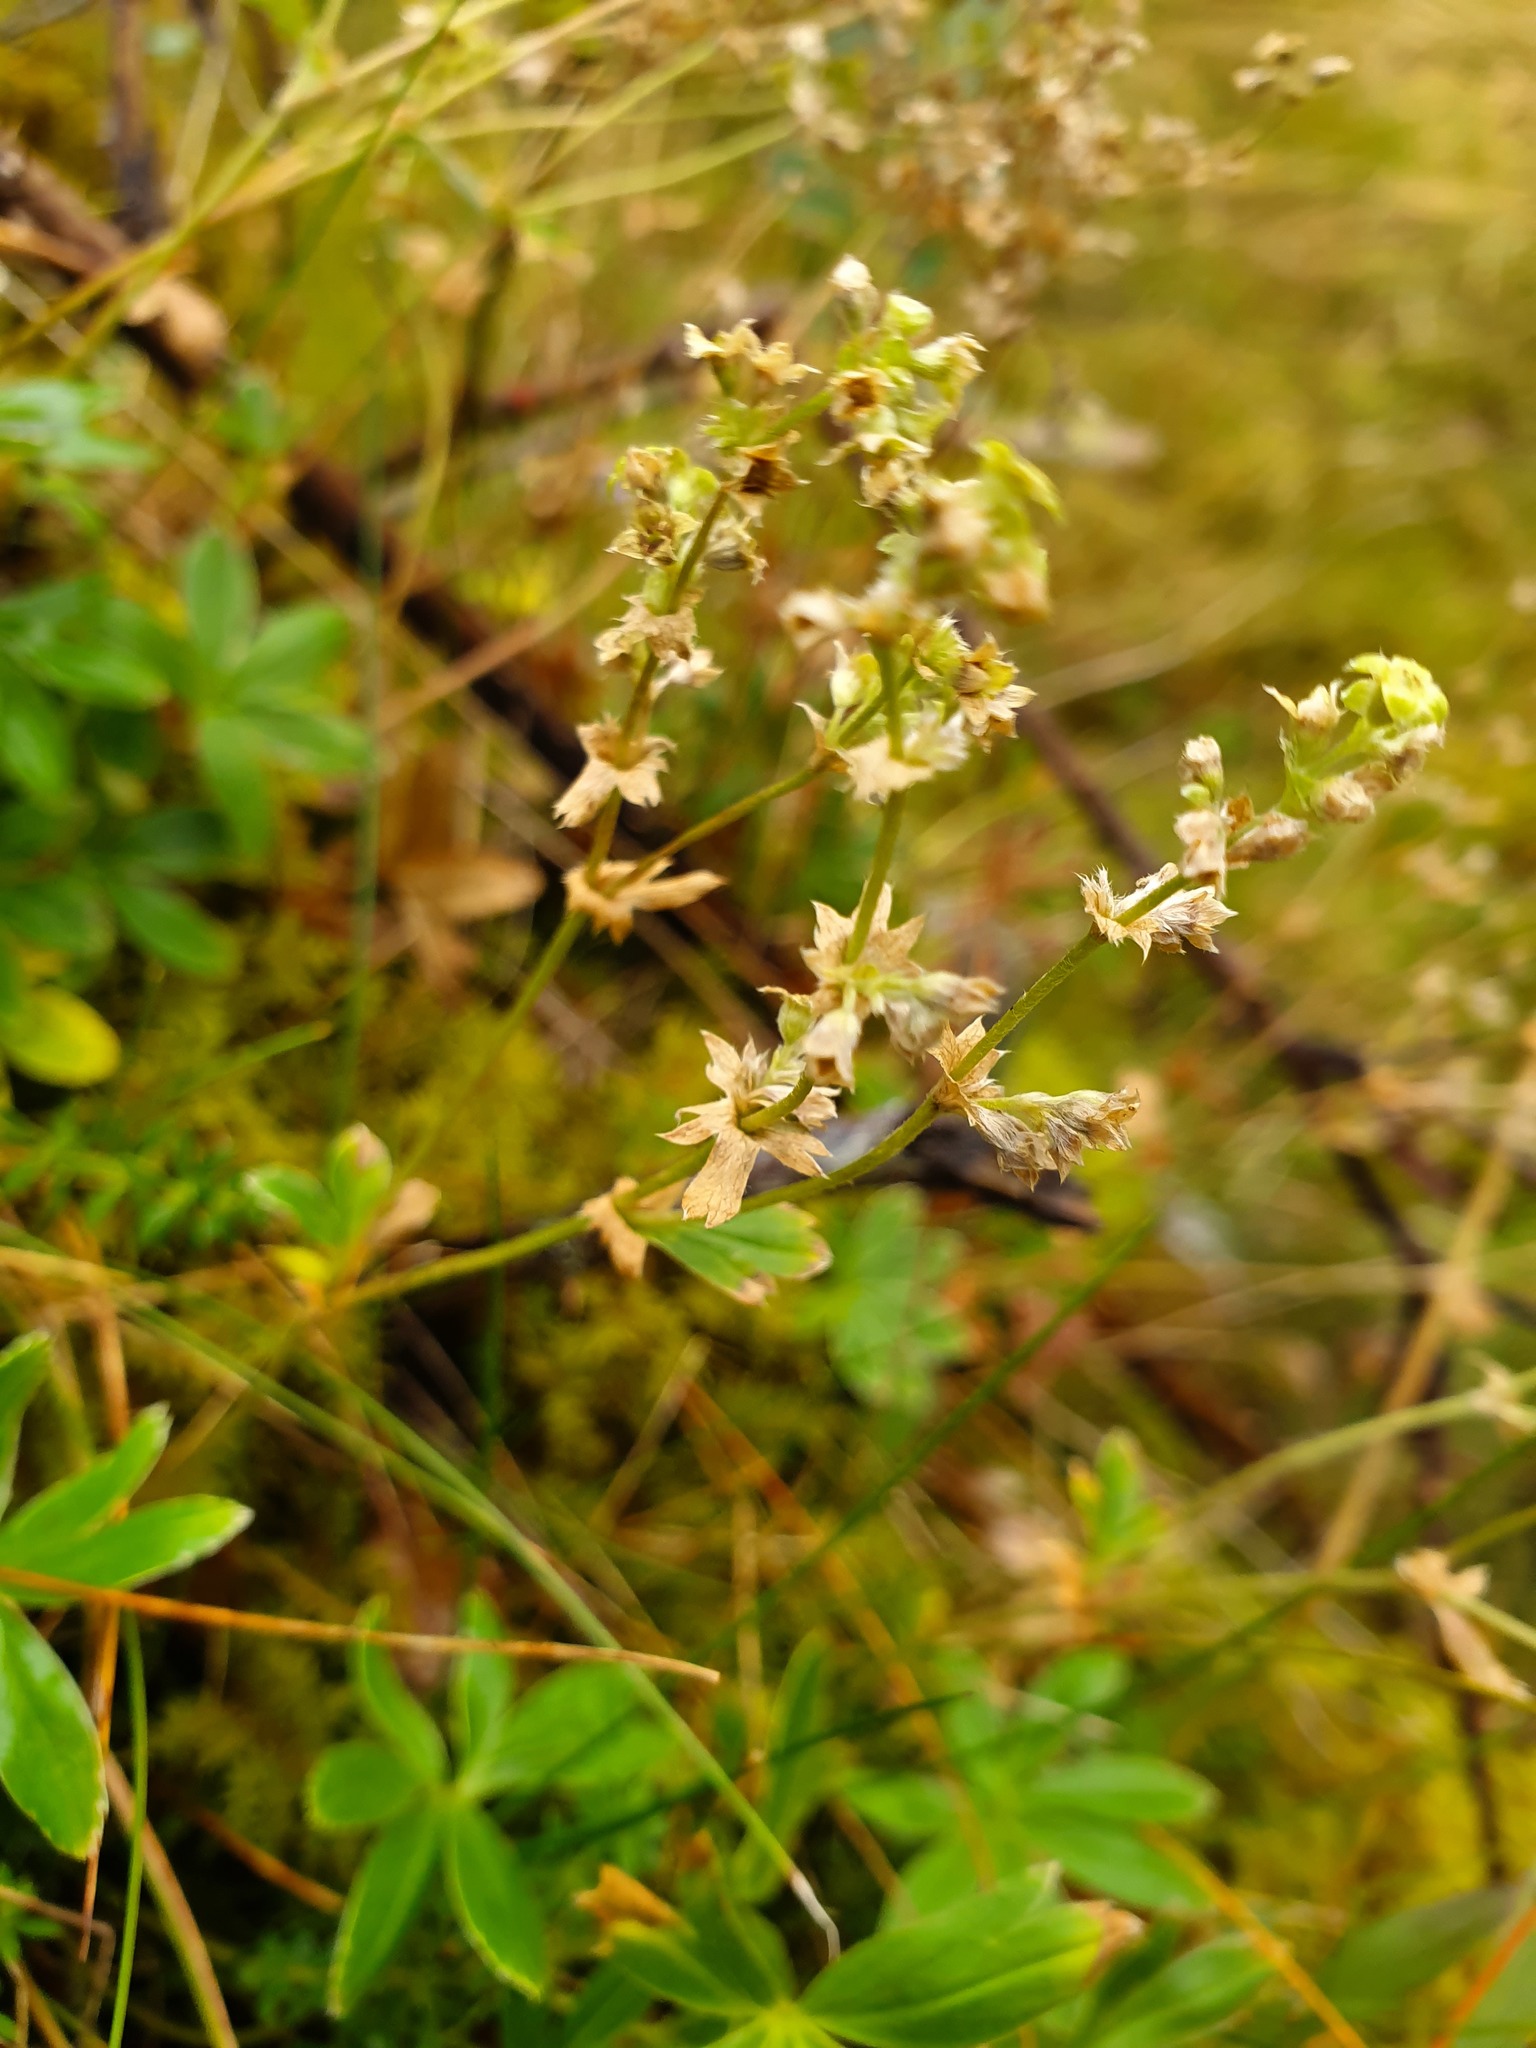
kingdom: Plantae
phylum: Tracheophyta
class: Magnoliopsida
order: Rosales
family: Rosaceae
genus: Alchemilla
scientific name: Alchemilla alpina
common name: Alpine lady's-mantle
